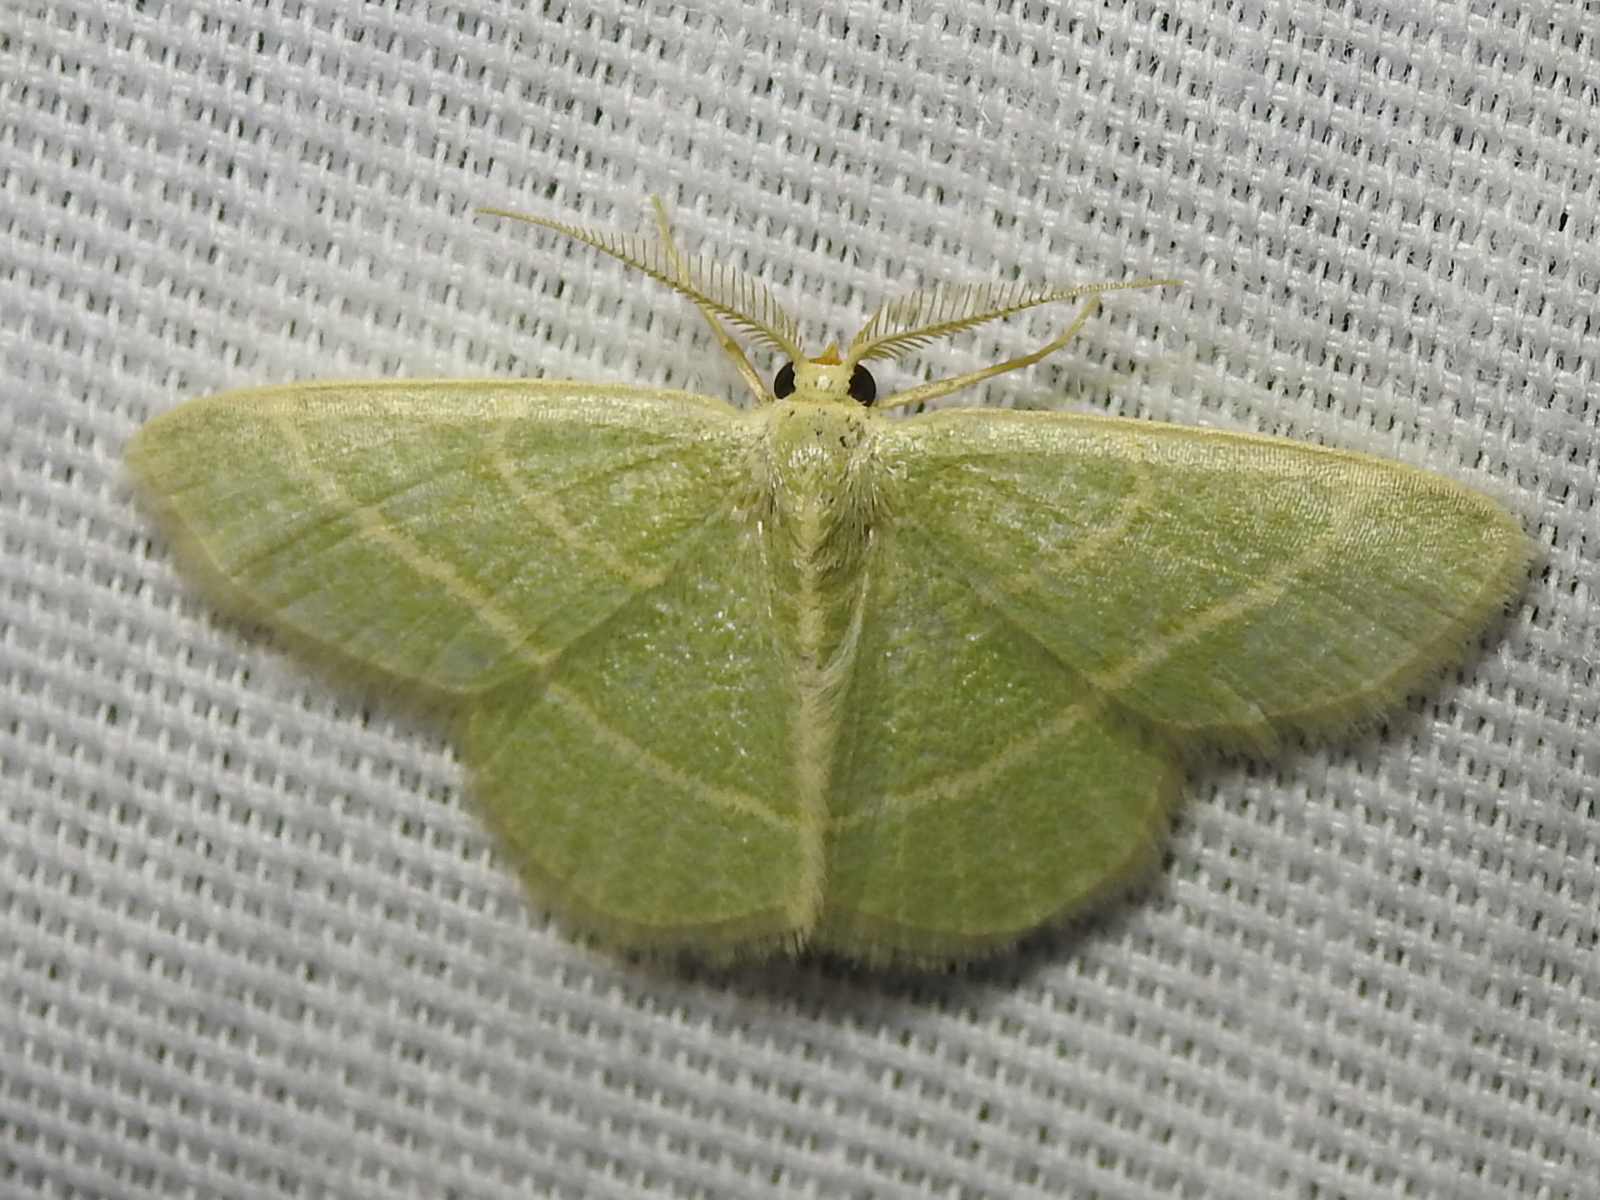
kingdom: Animalia
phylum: Arthropoda
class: Insecta
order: Lepidoptera
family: Geometridae
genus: Chlorochlamys
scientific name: Chlorochlamys chloroleucaria
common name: Blackberry looper
